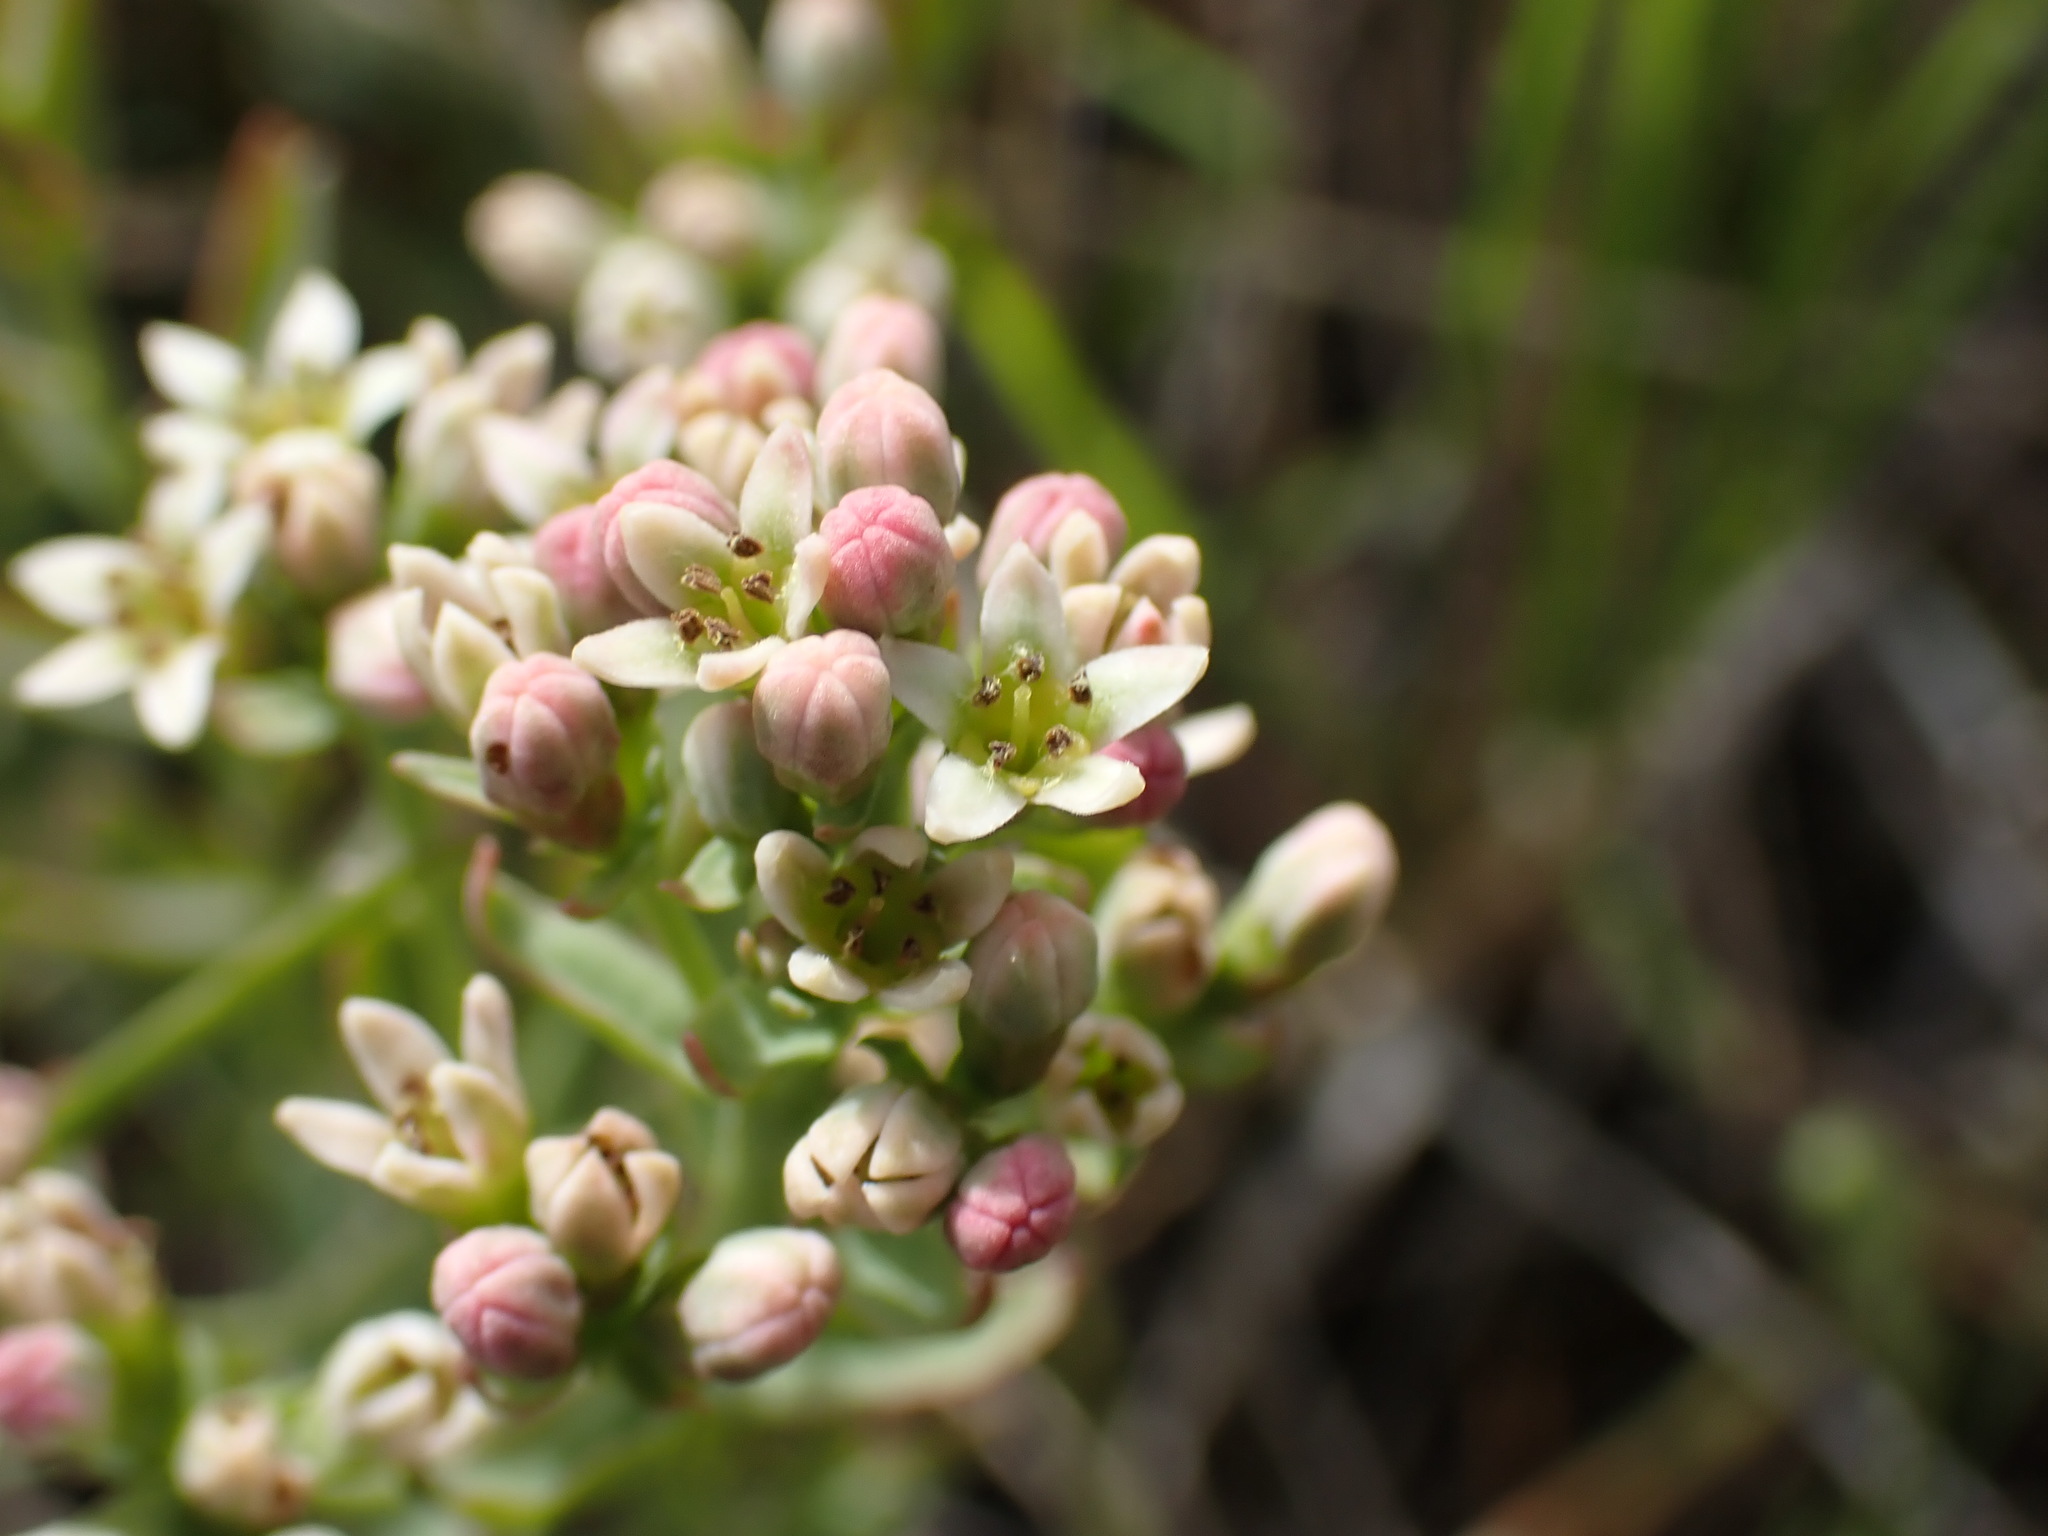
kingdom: Plantae
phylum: Tracheophyta
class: Magnoliopsida
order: Santalales
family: Comandraceae
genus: Comandra
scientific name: Comandra umbellata
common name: Bastard toadflax
